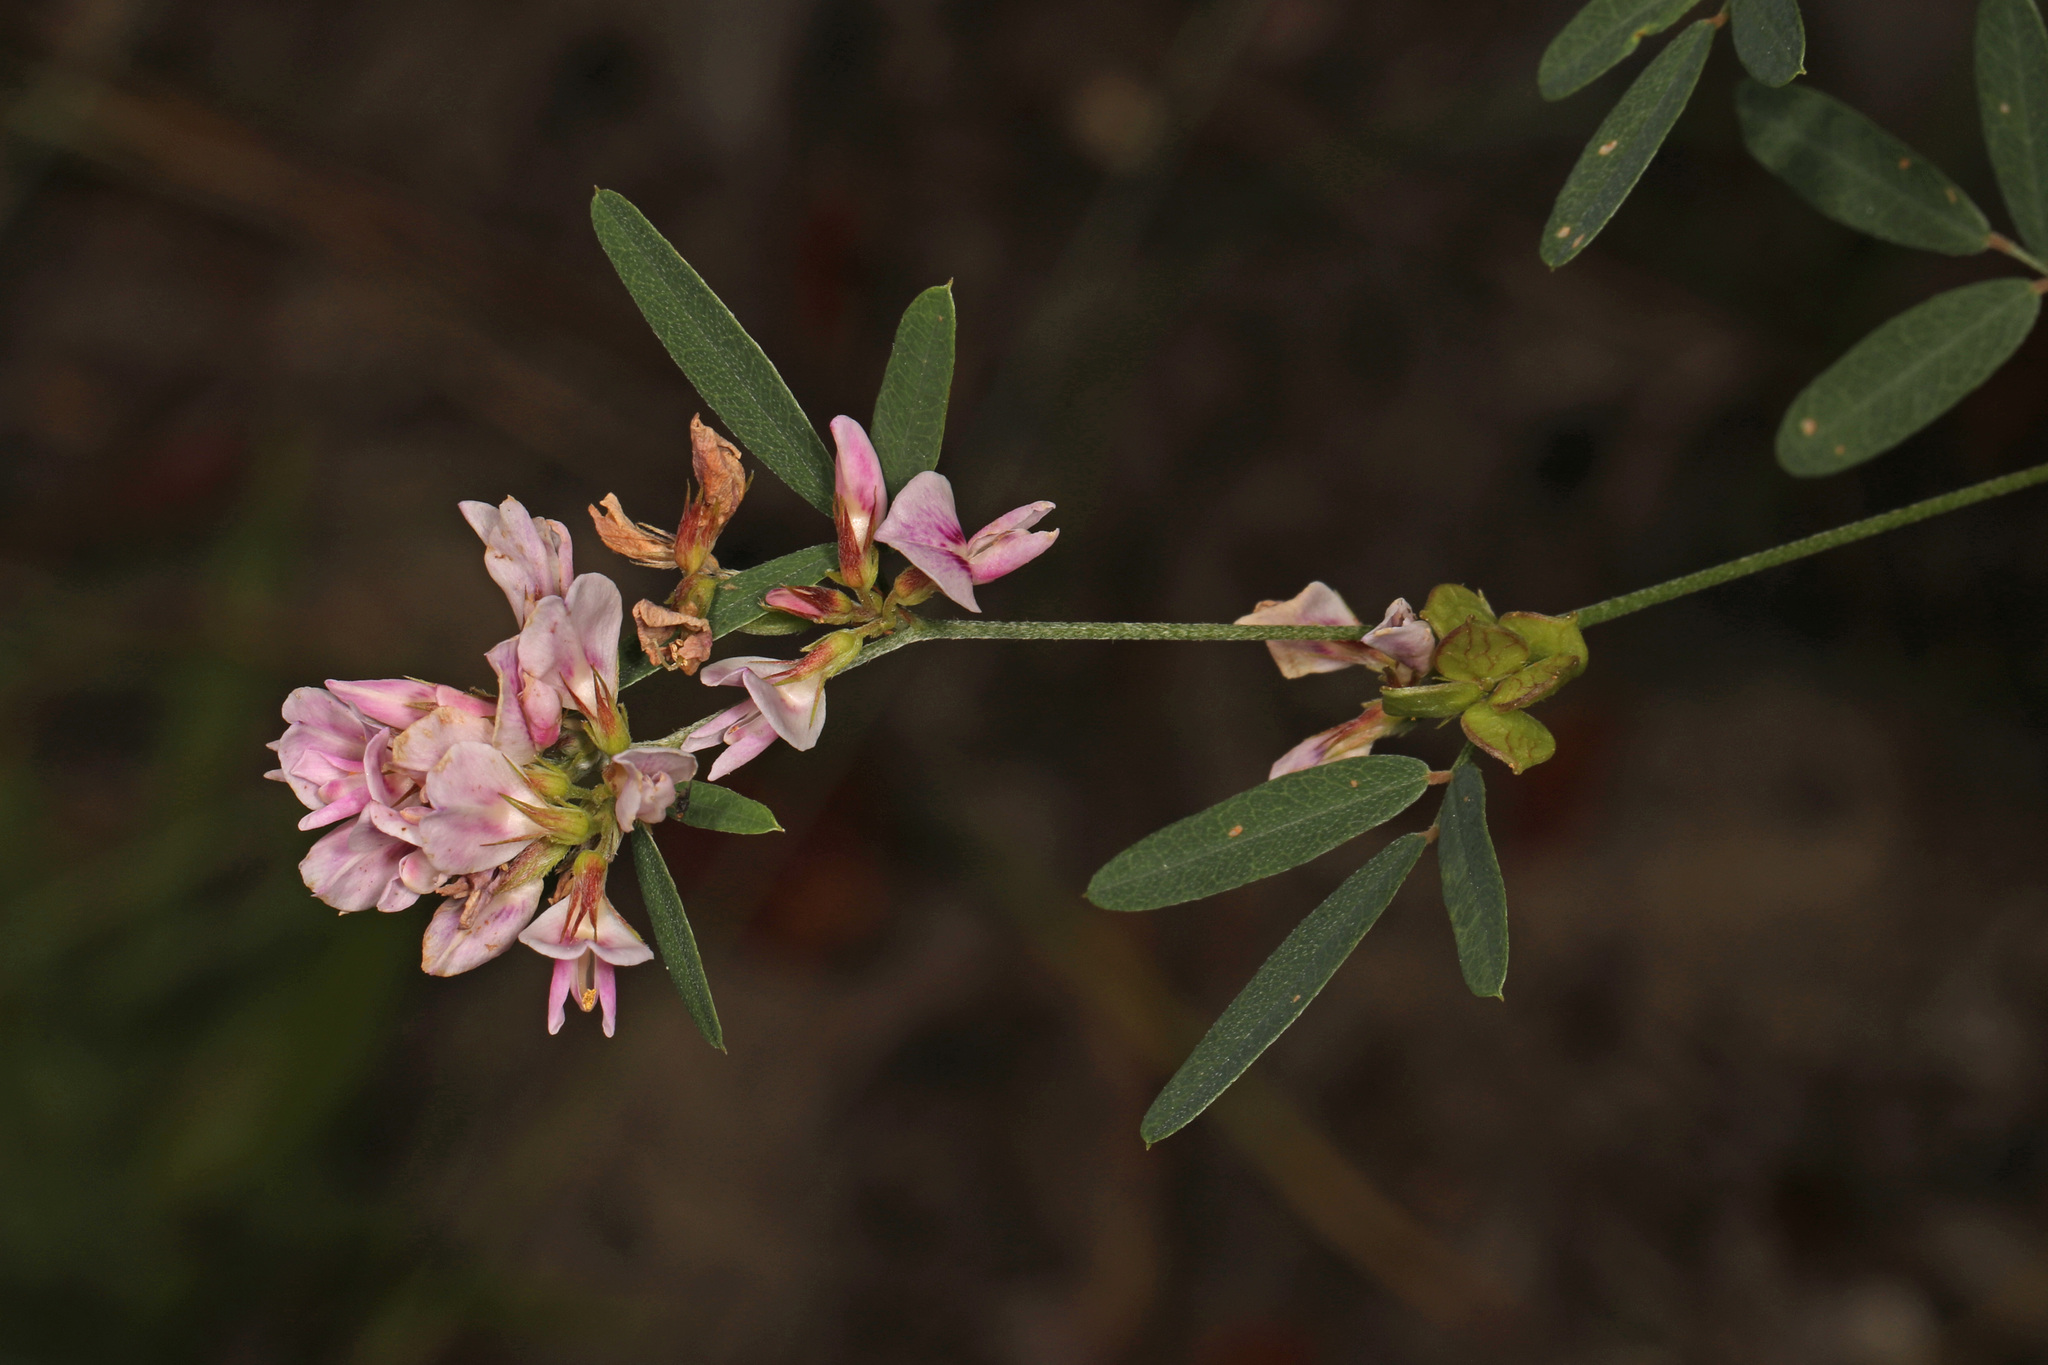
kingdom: Plantae
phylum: Tracheophyta
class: Magnoliopsida
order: Fabales
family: Fabaceae
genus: Lespedeza
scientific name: Lespedeza virginica
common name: Slender bush-clover
